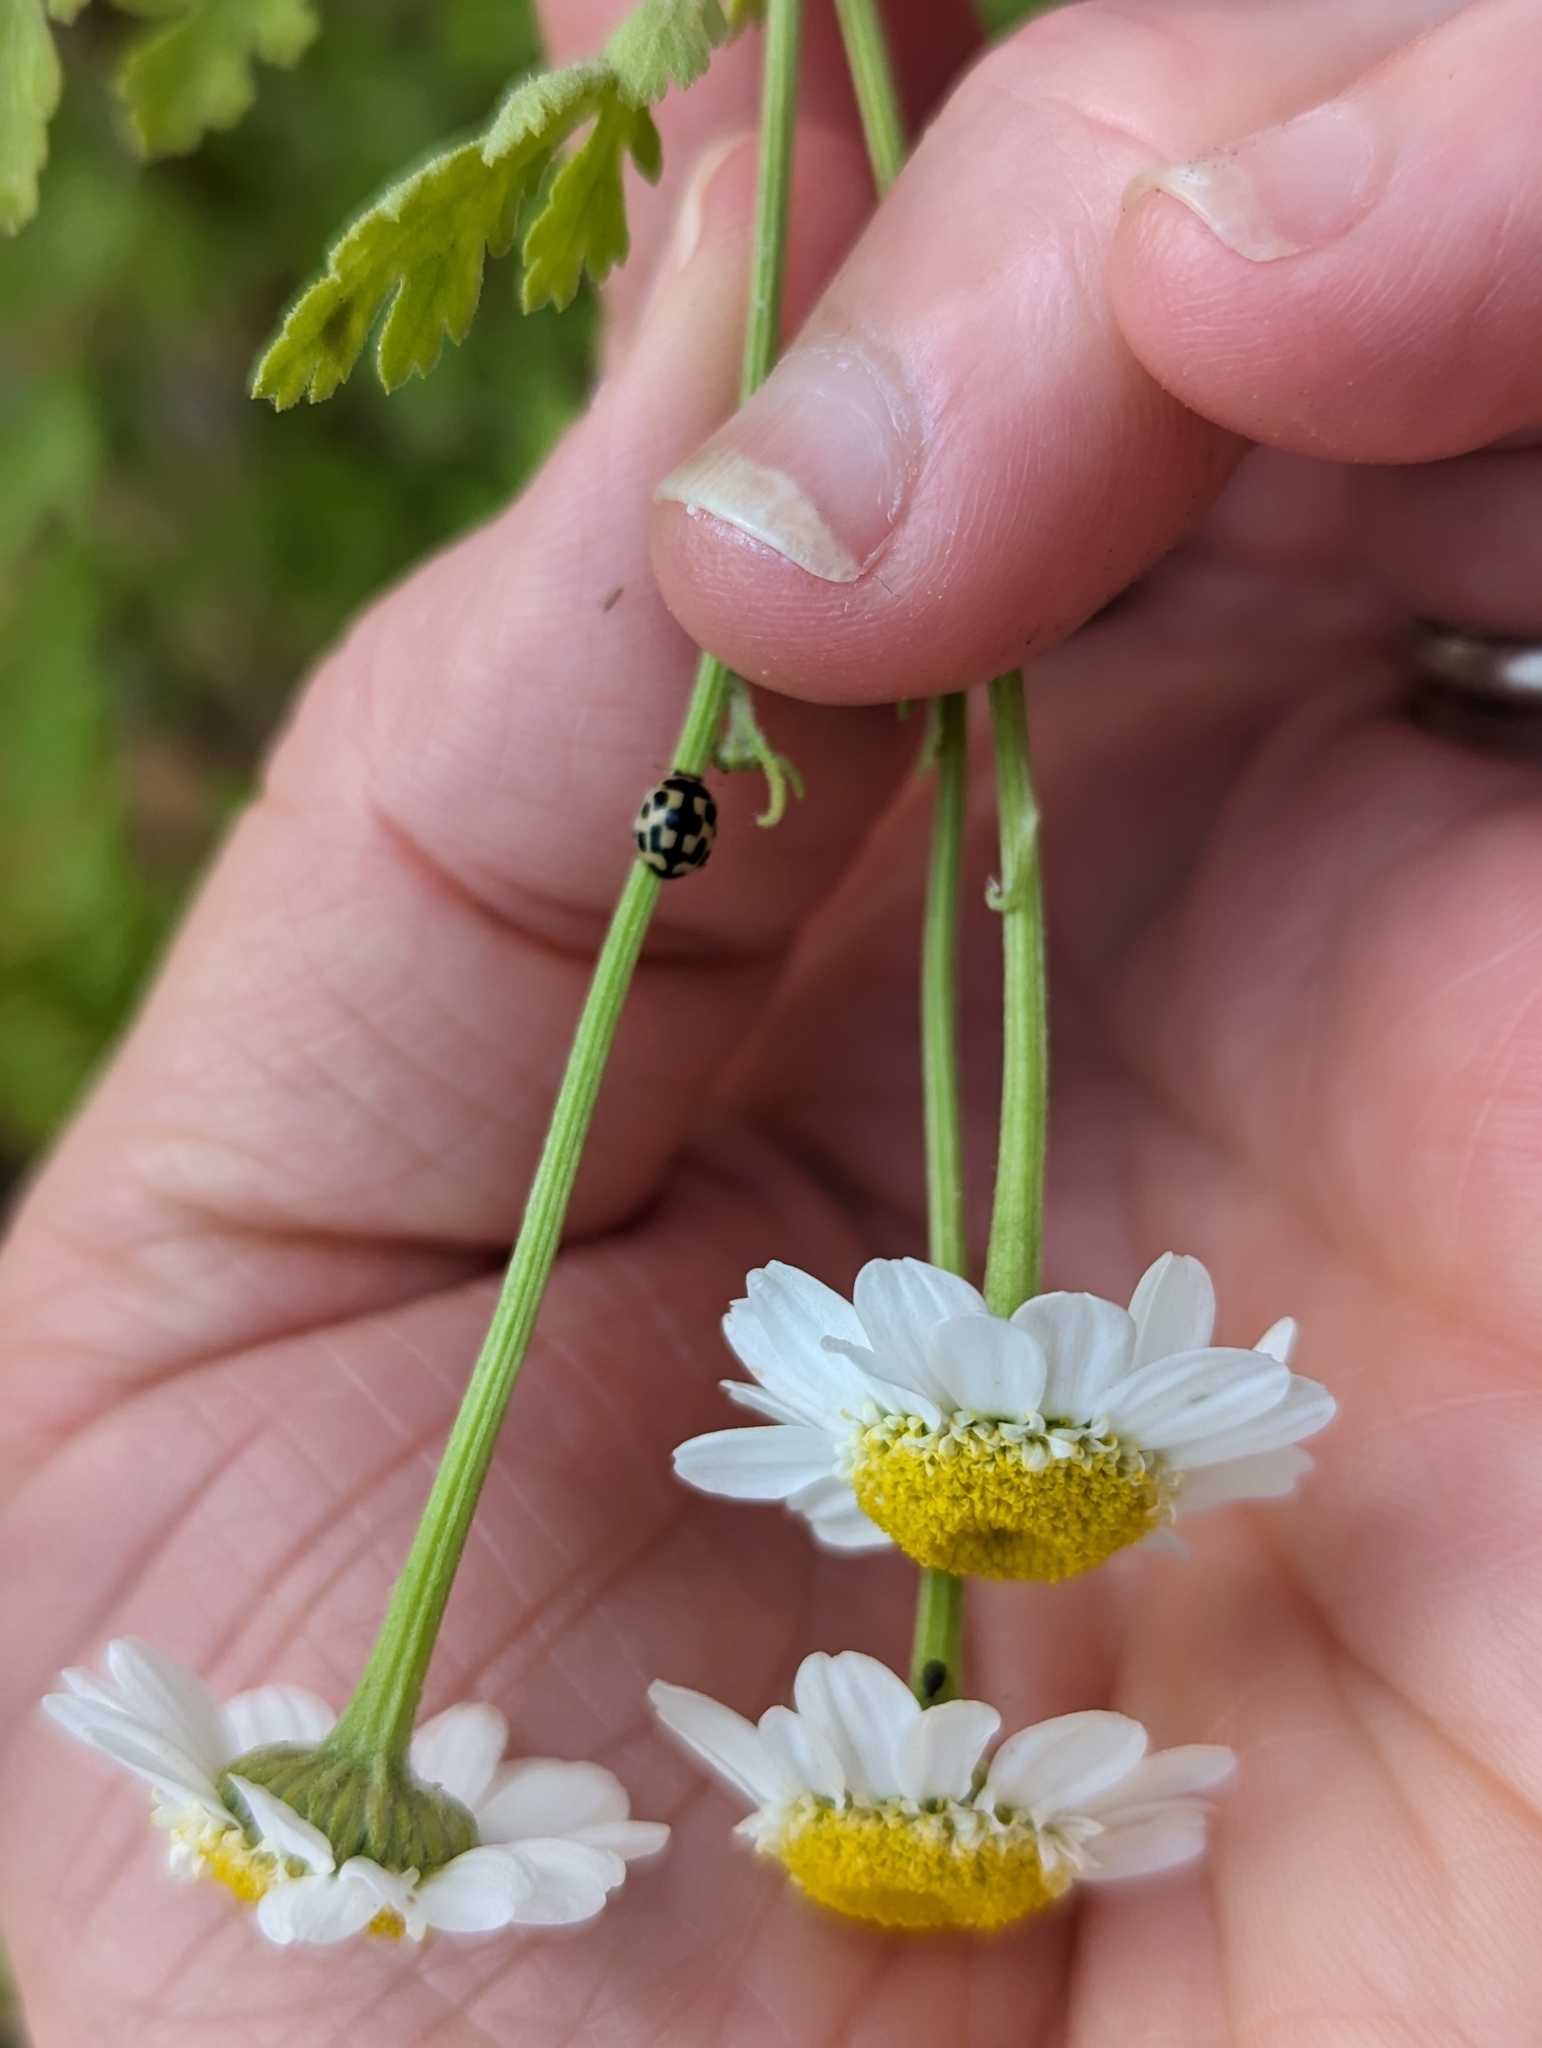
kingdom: Animalia
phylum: Arthropoda
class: Insecta
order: Coleoptera
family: Coccinellidae
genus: Propylaea
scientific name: Propylaea quatuordecimpunctata
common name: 14-spotted ladybird beetle
